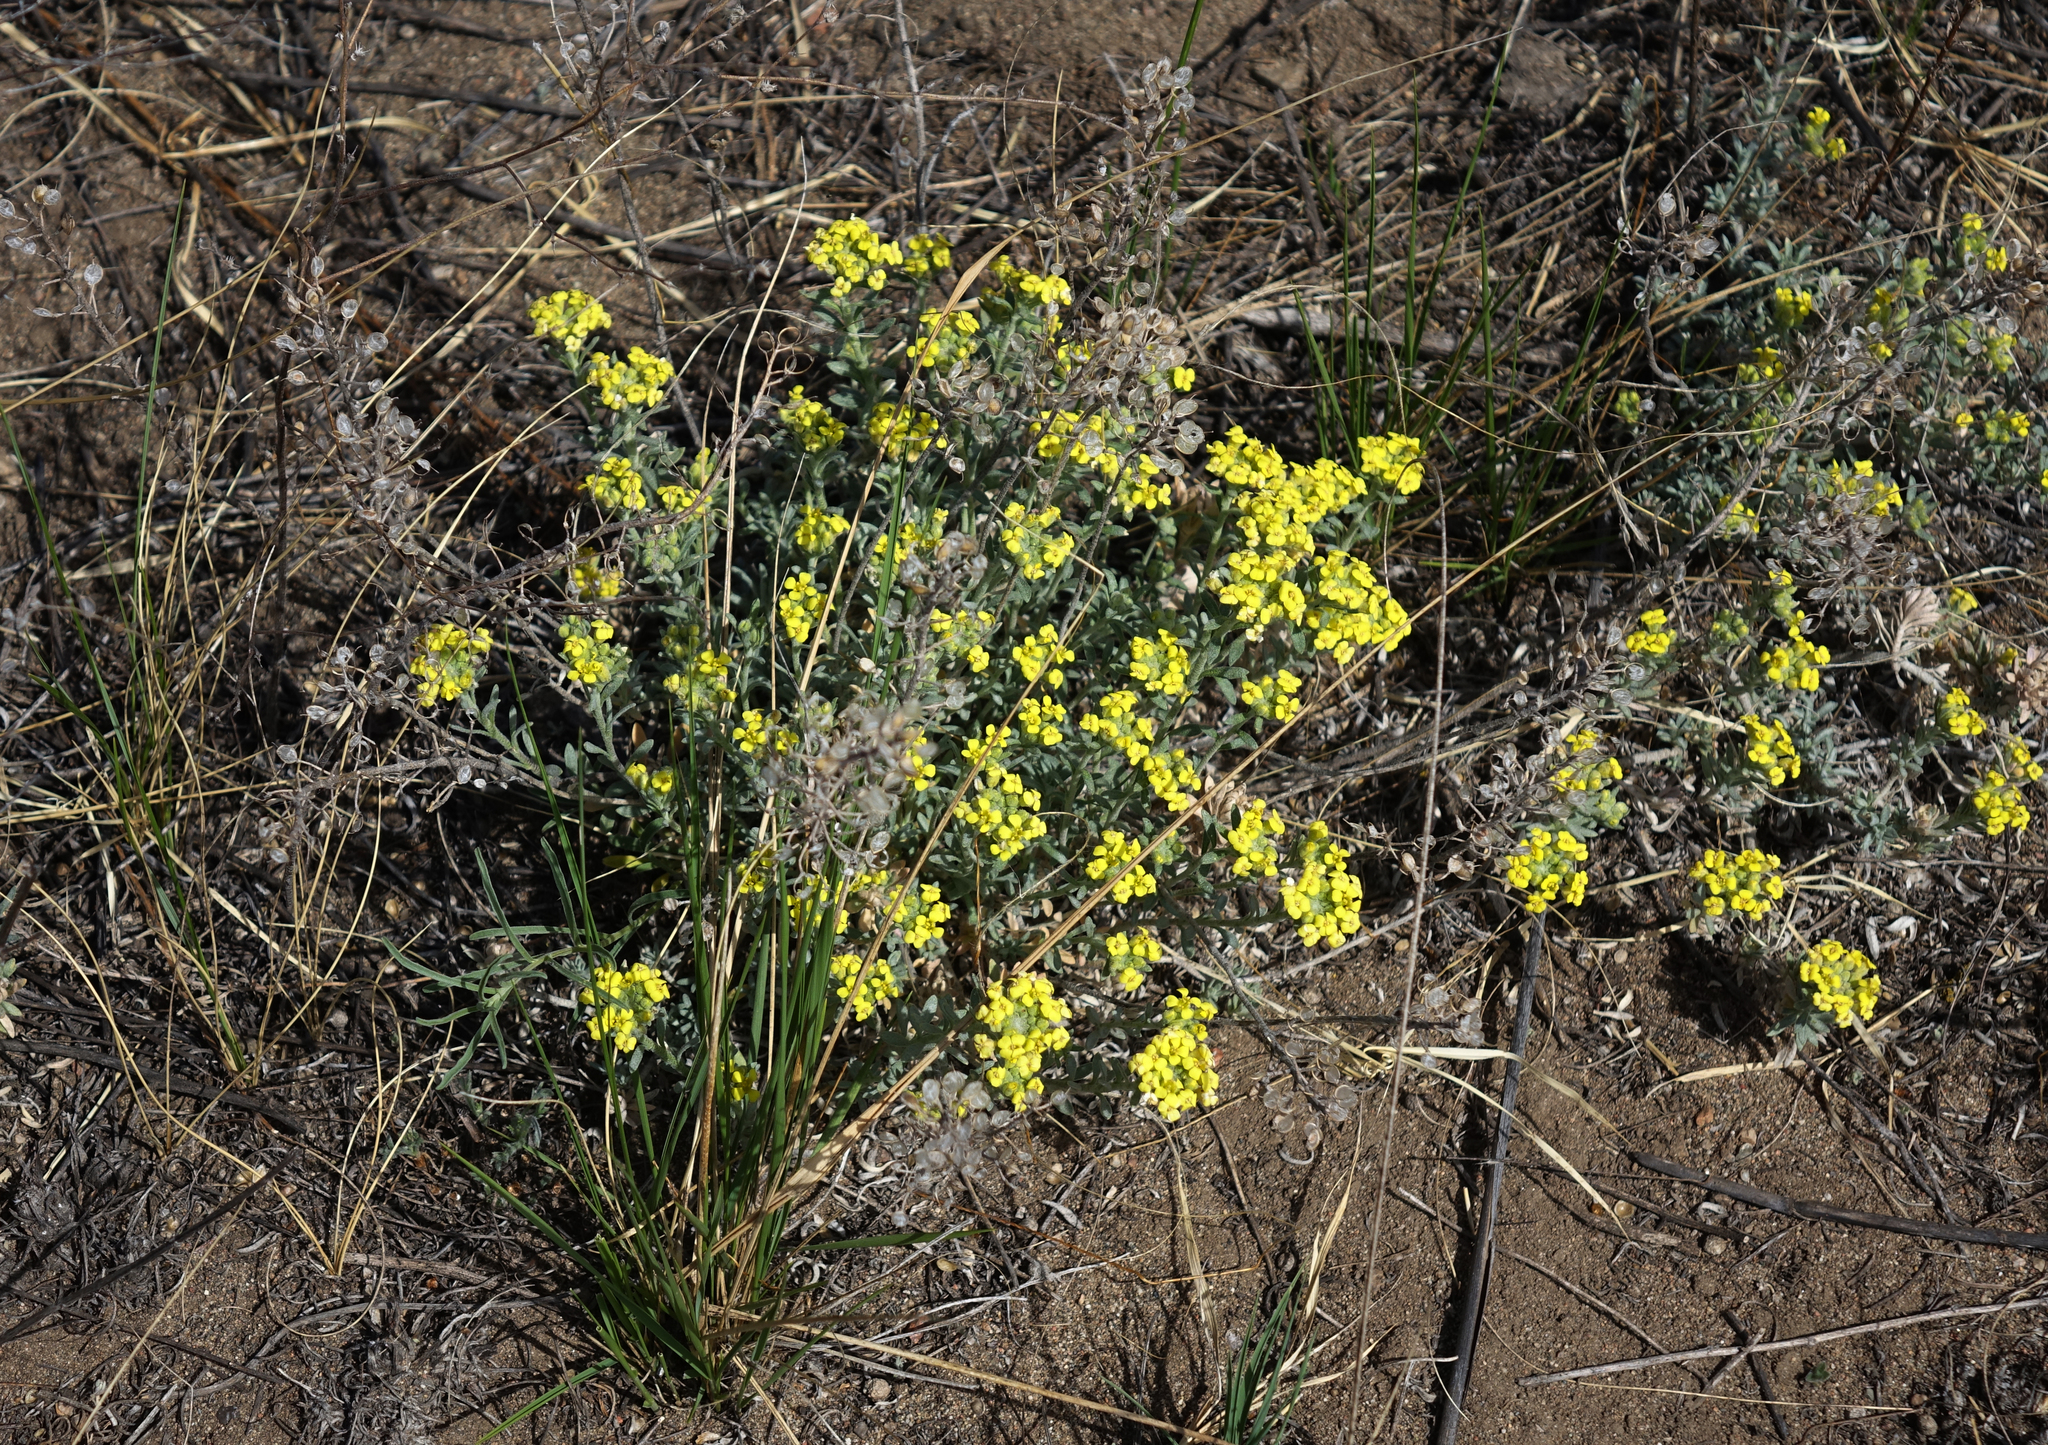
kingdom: Plantae
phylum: Tracheophyta
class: Magnoliopsida
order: Brassicales
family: Brassicaceae
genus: Alyssum
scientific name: Alyssum lenense
